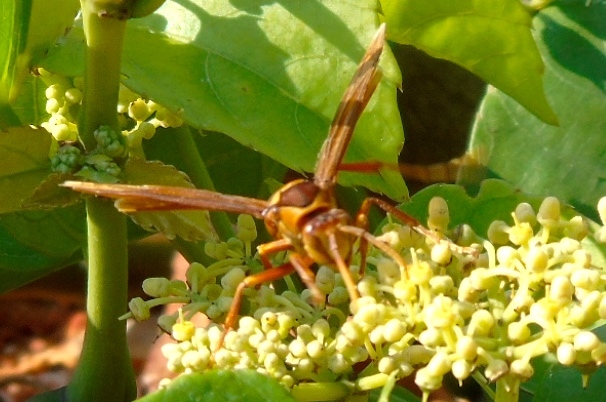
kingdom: Animalia
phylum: Arthropoda
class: Insecta
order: Hymenoptera
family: Eumenidae
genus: Polistes
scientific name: Polistes carnifex
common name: Paper wasp
